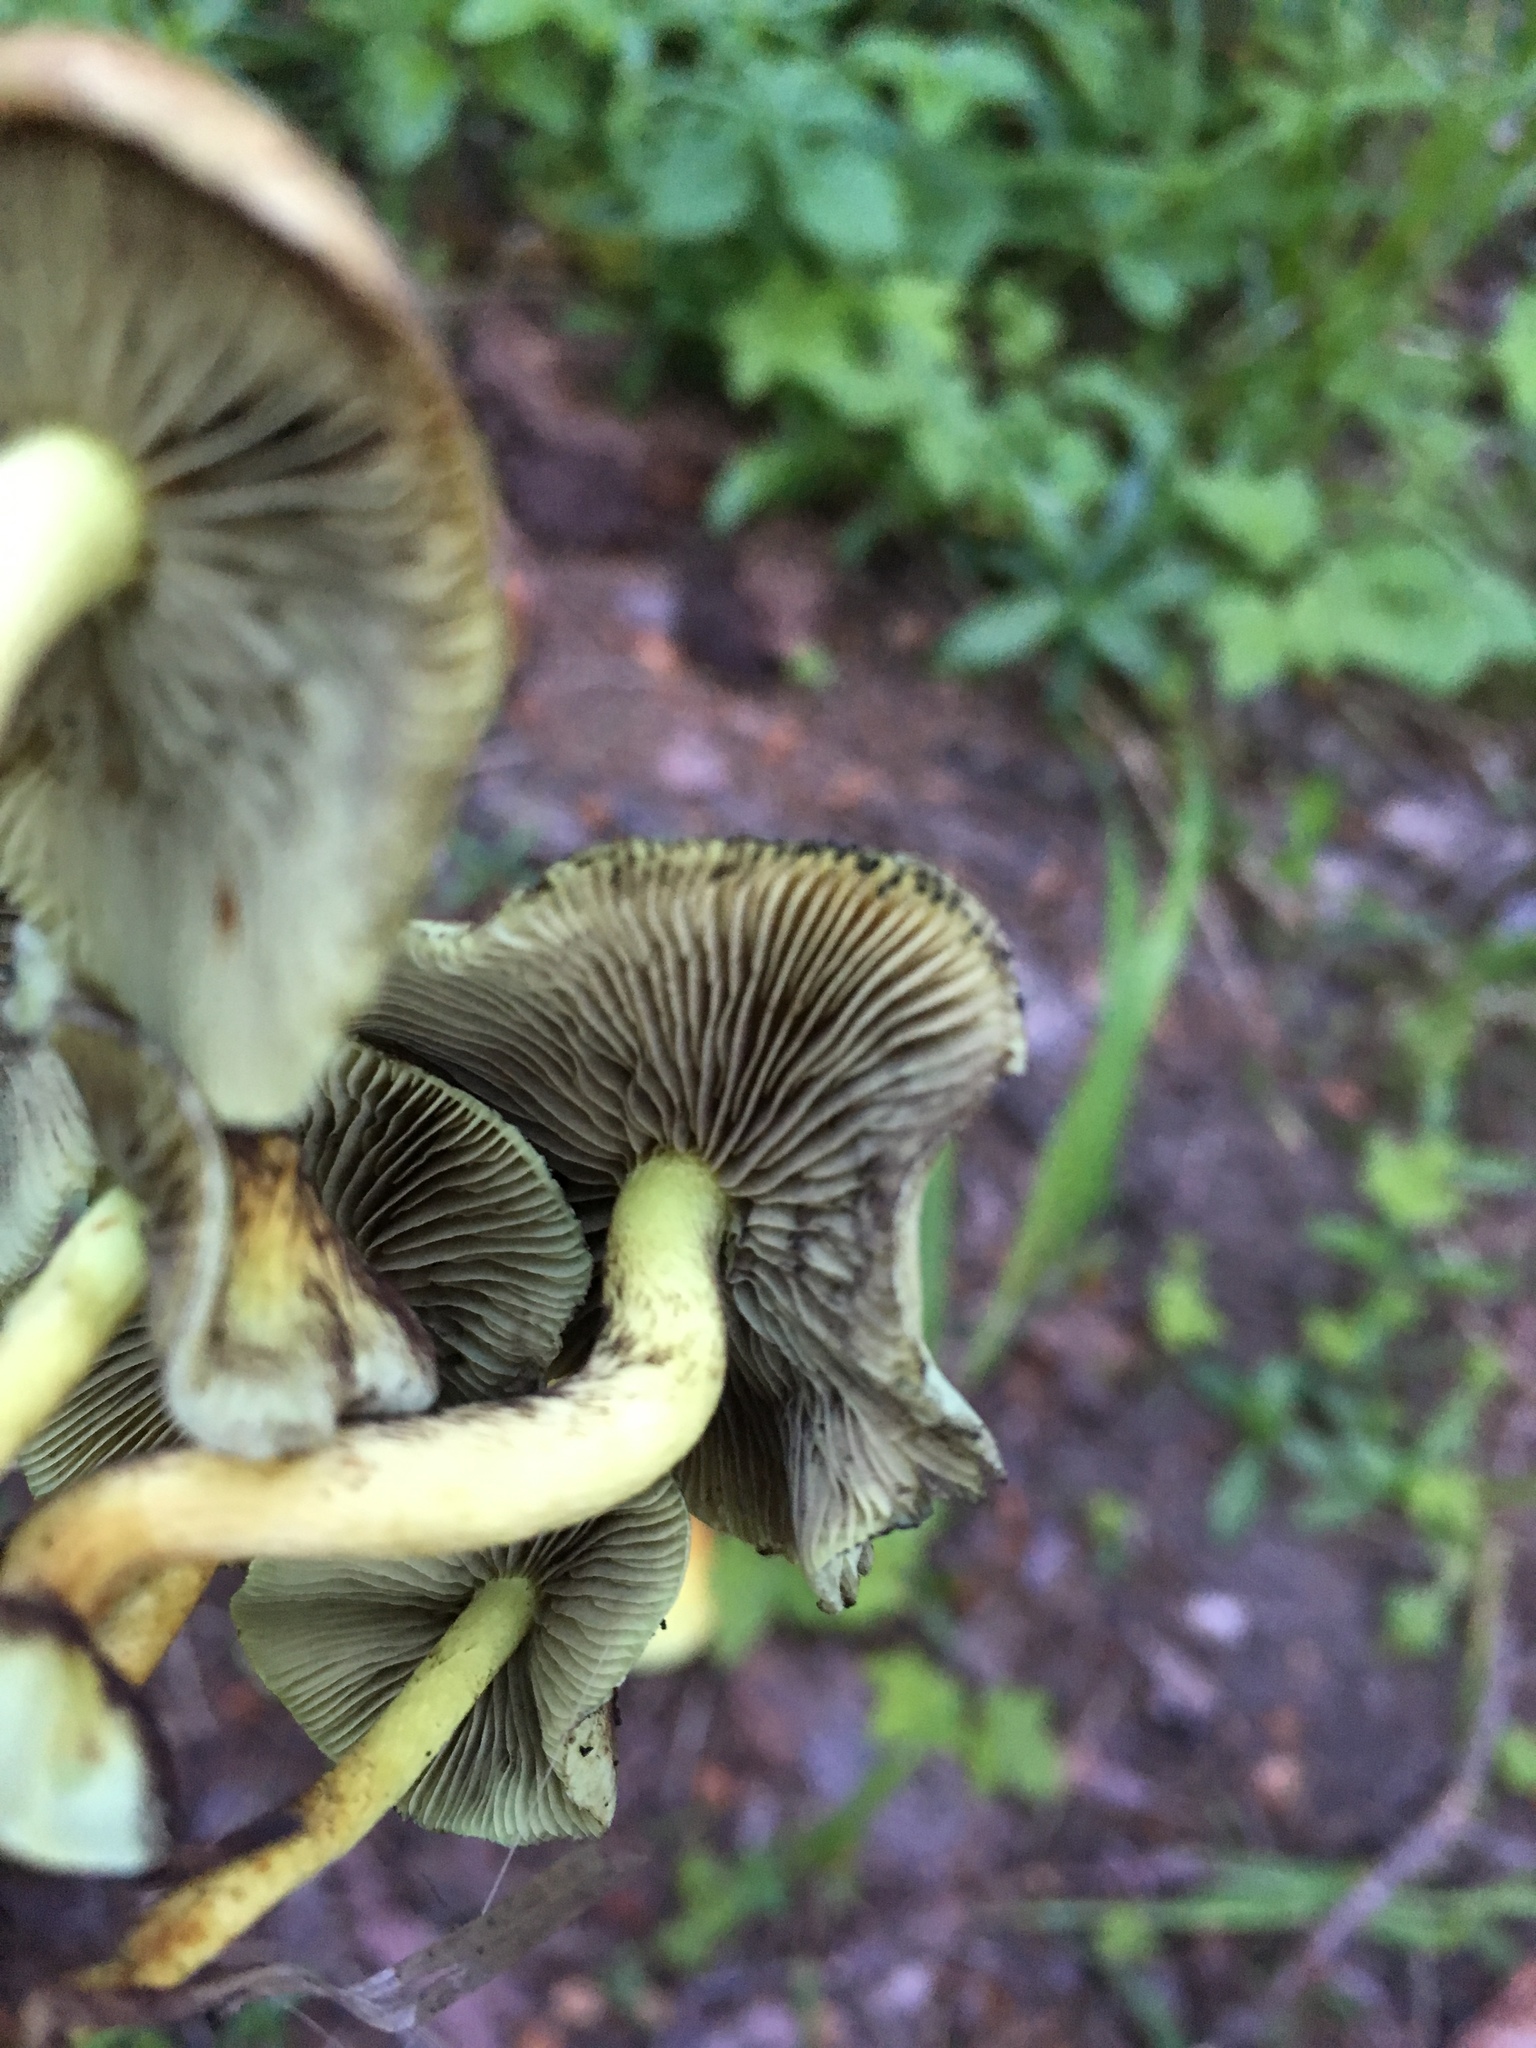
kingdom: Fungi
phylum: Basidiomycota
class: Agaricomycetes
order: Agaricales
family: Strophariaceae
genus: Hypholoma
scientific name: Hypholoma fasciculare
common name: Sulphur tuft
